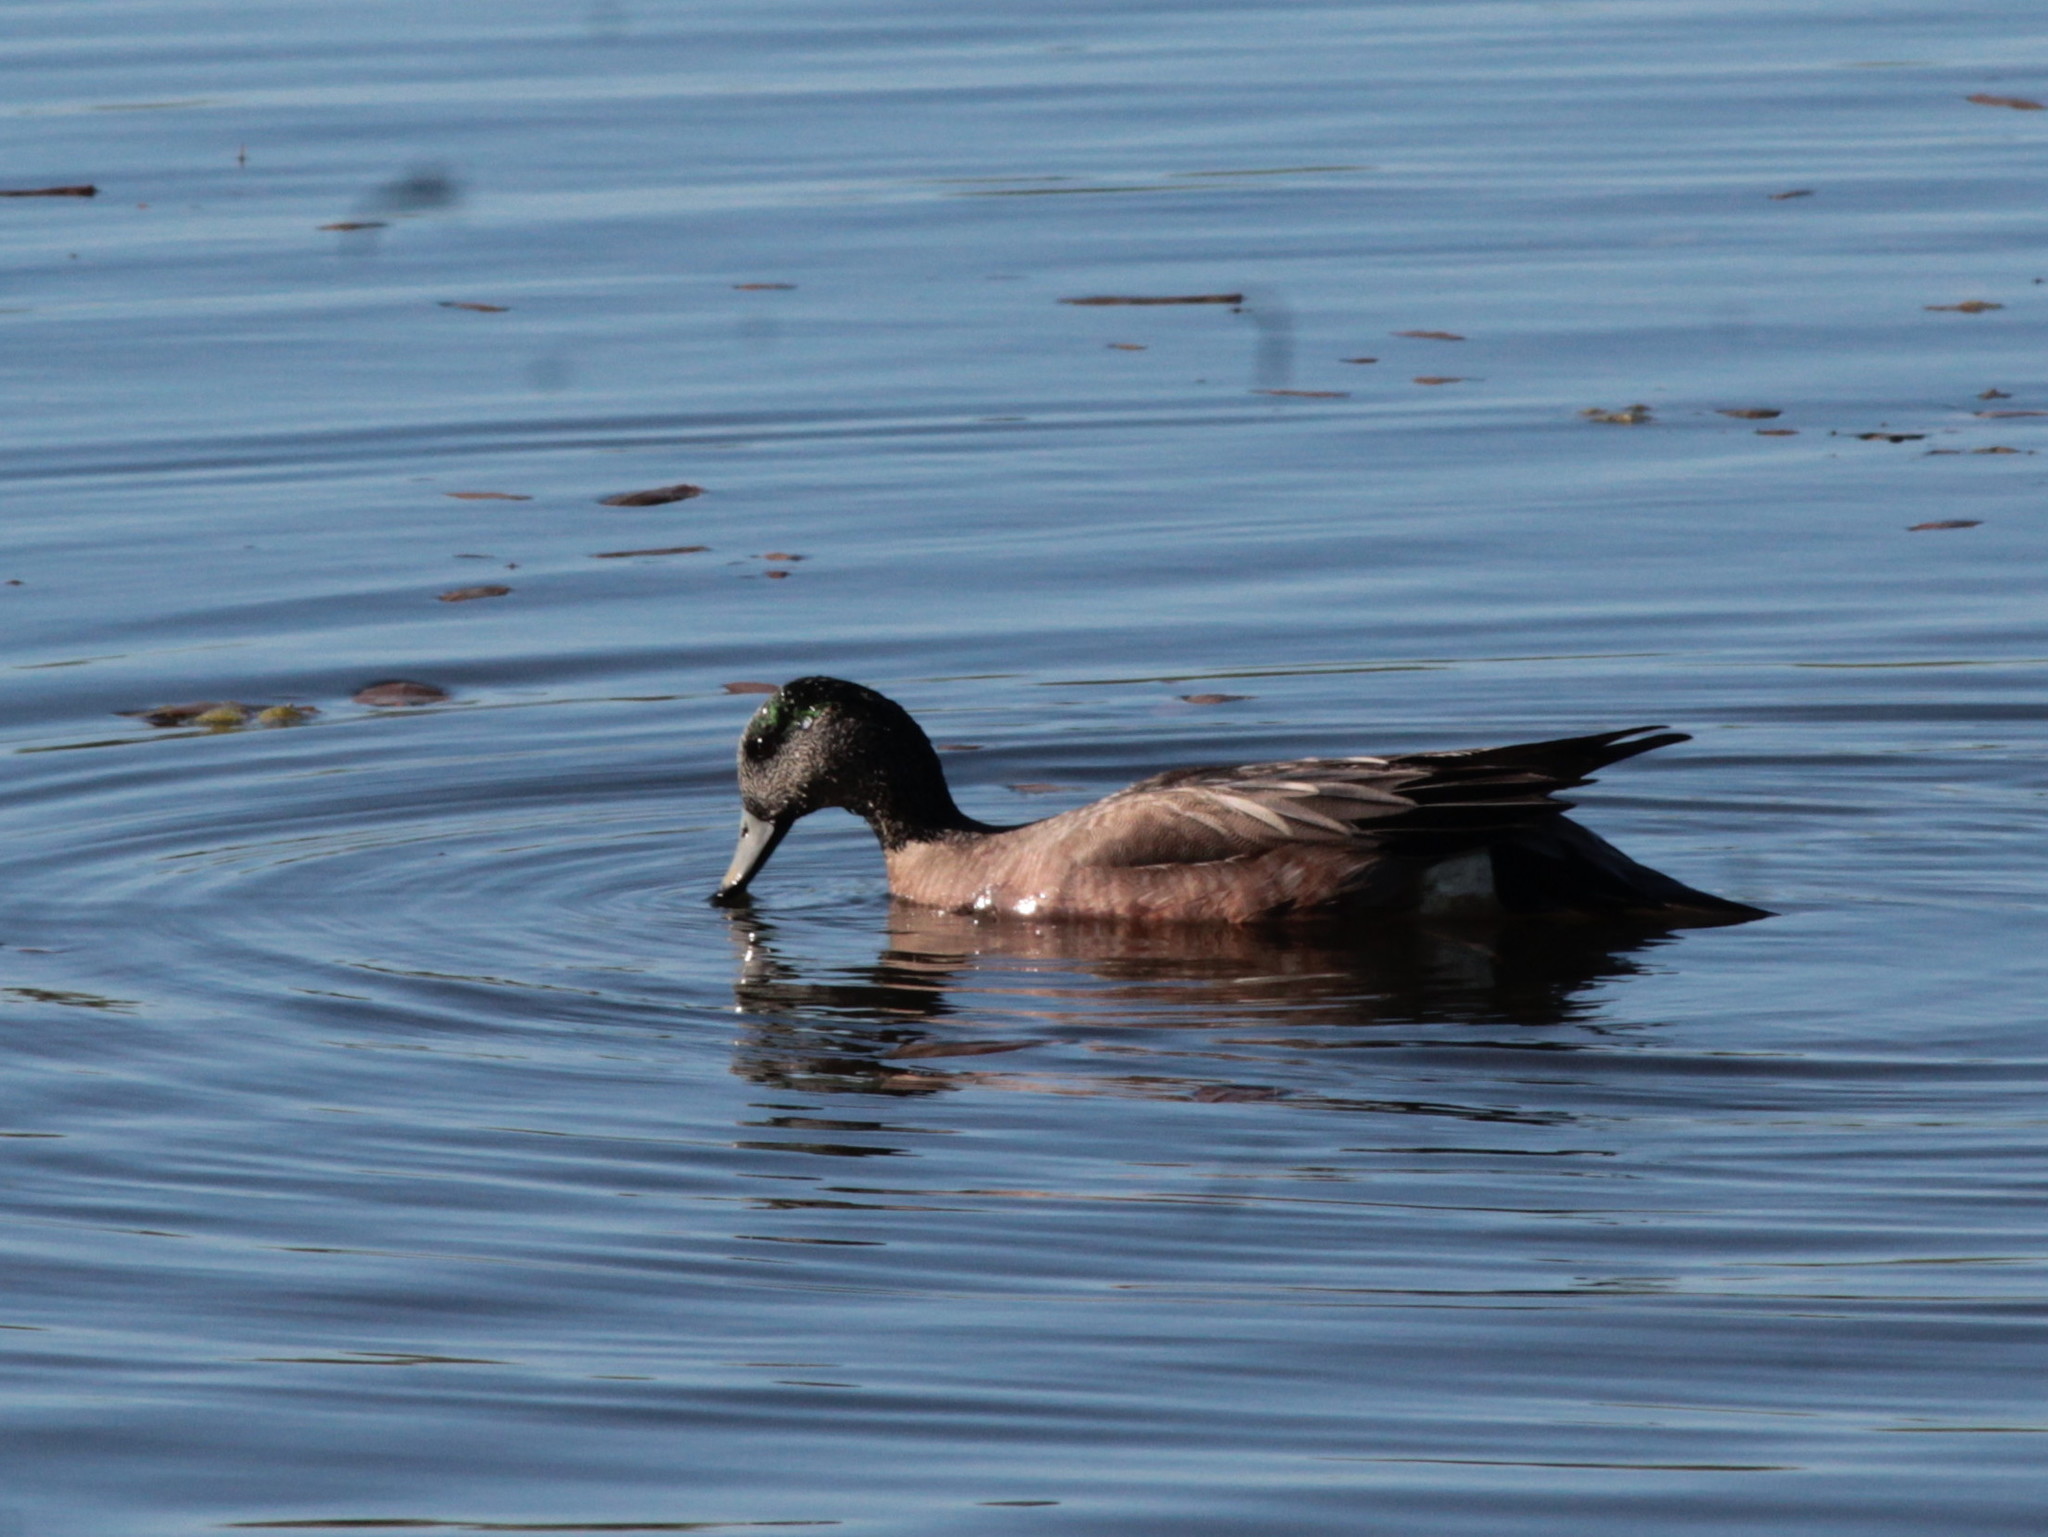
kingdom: Animalia
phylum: Chordata
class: Aves
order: Anseriformes
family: Anatidae
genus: Mareca
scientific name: Mareca americana
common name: American wigeon
